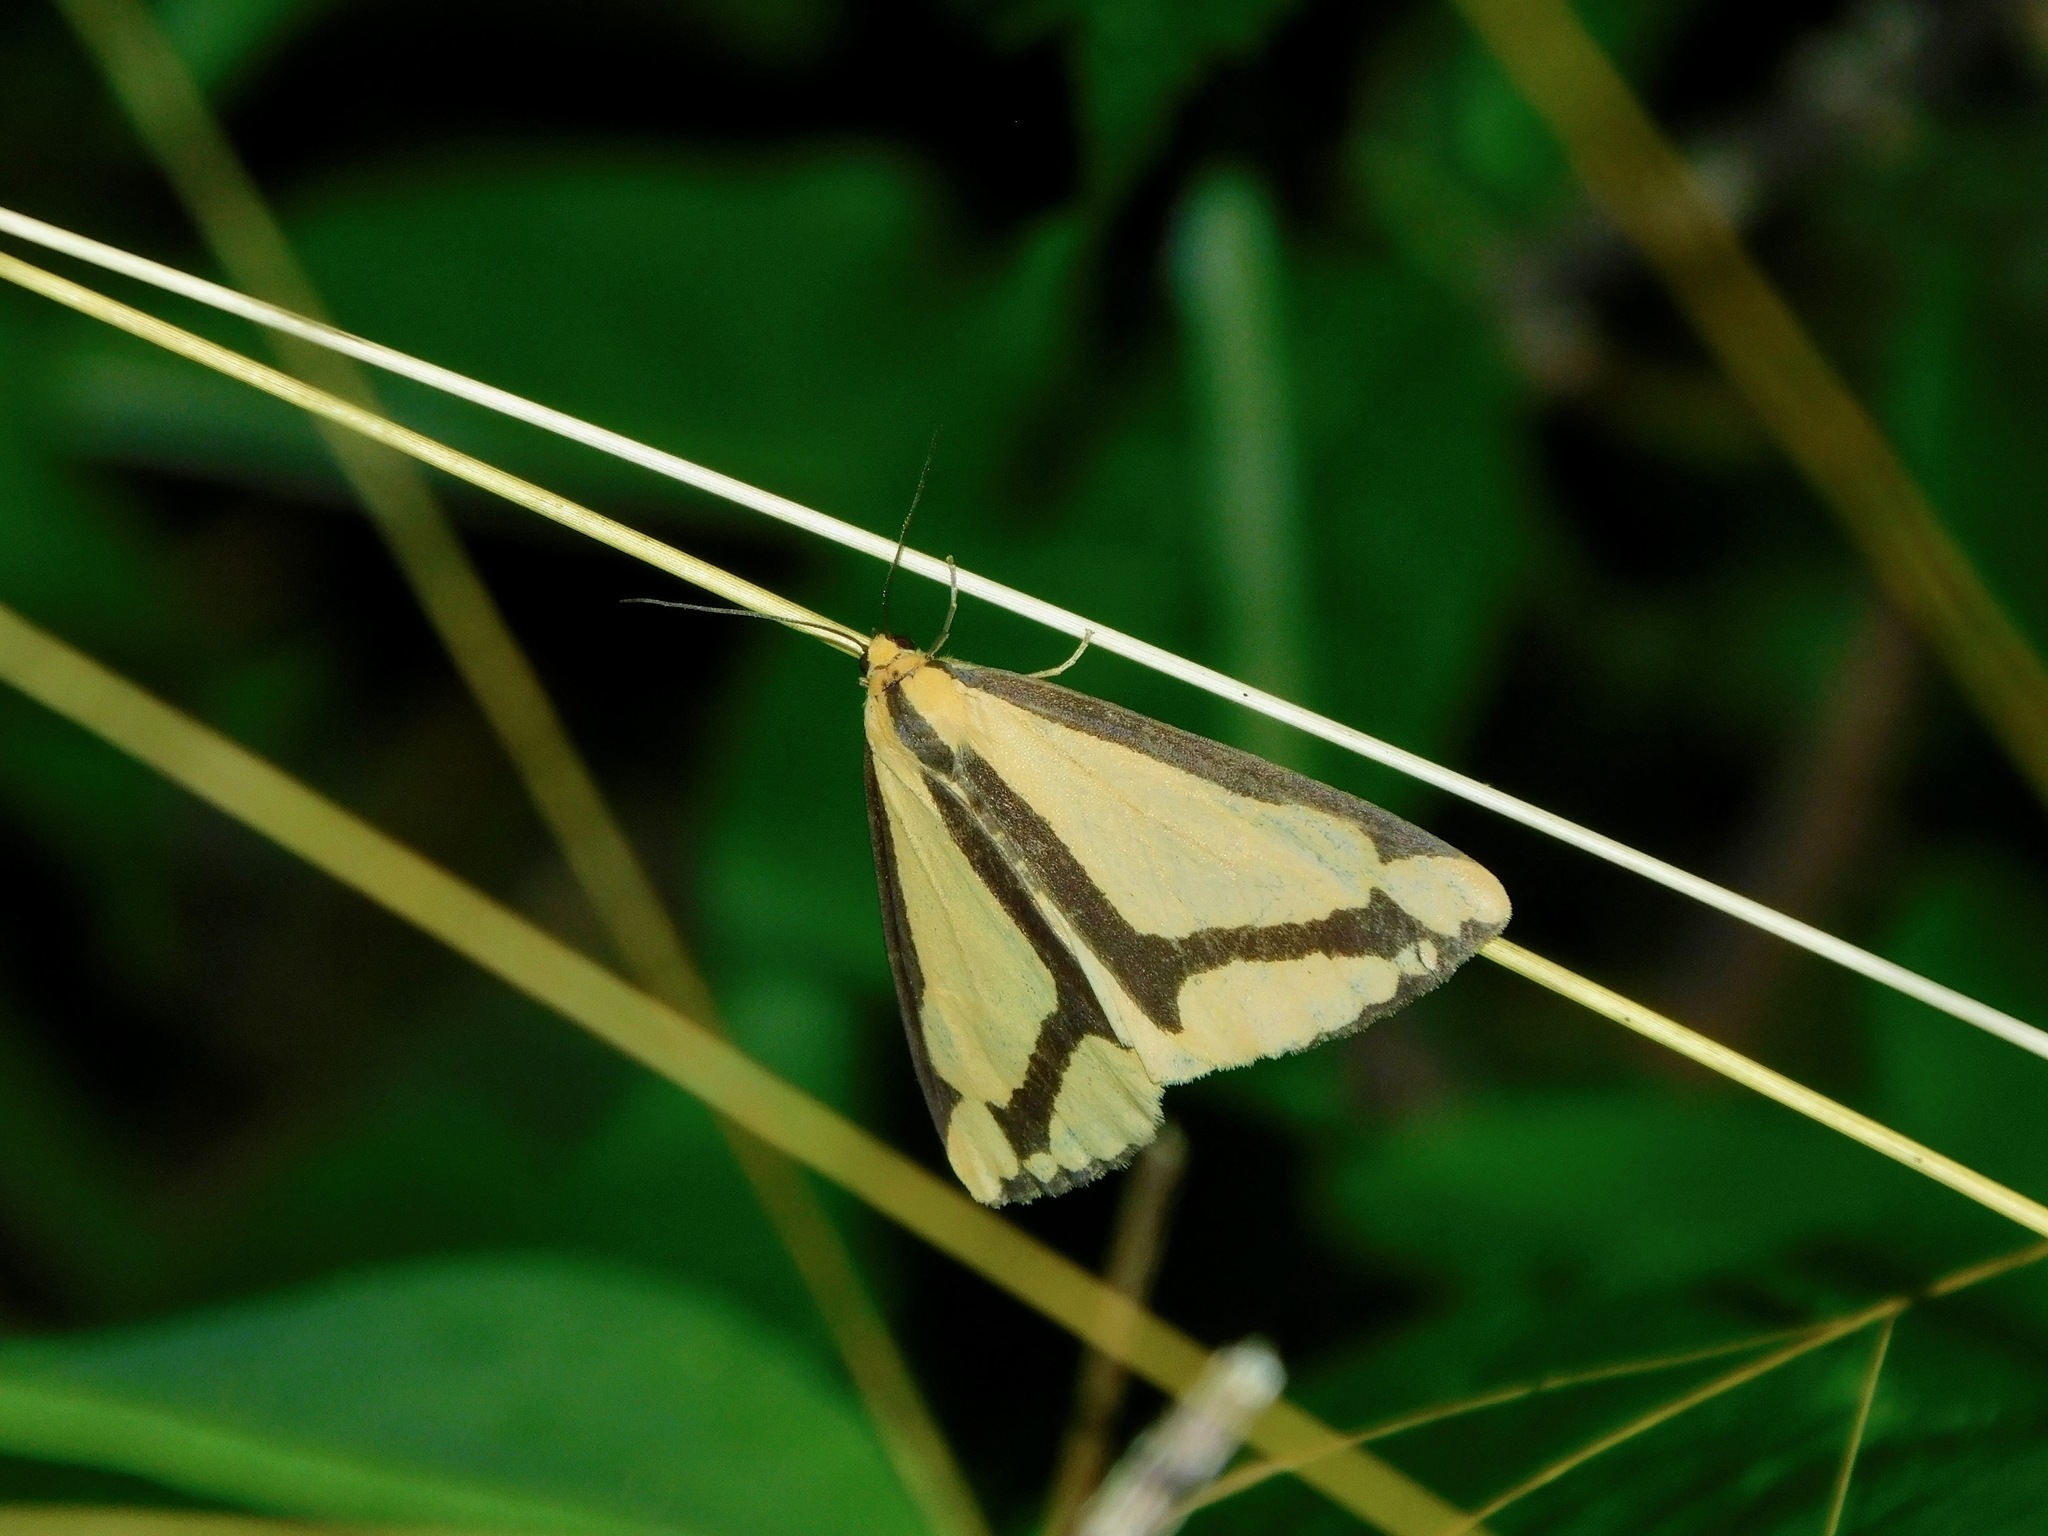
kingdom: Animalia
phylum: Arthropoda
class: Insecta
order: Lepidoptera
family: Erebidae
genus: Haploa
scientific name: Haploa lecontei
